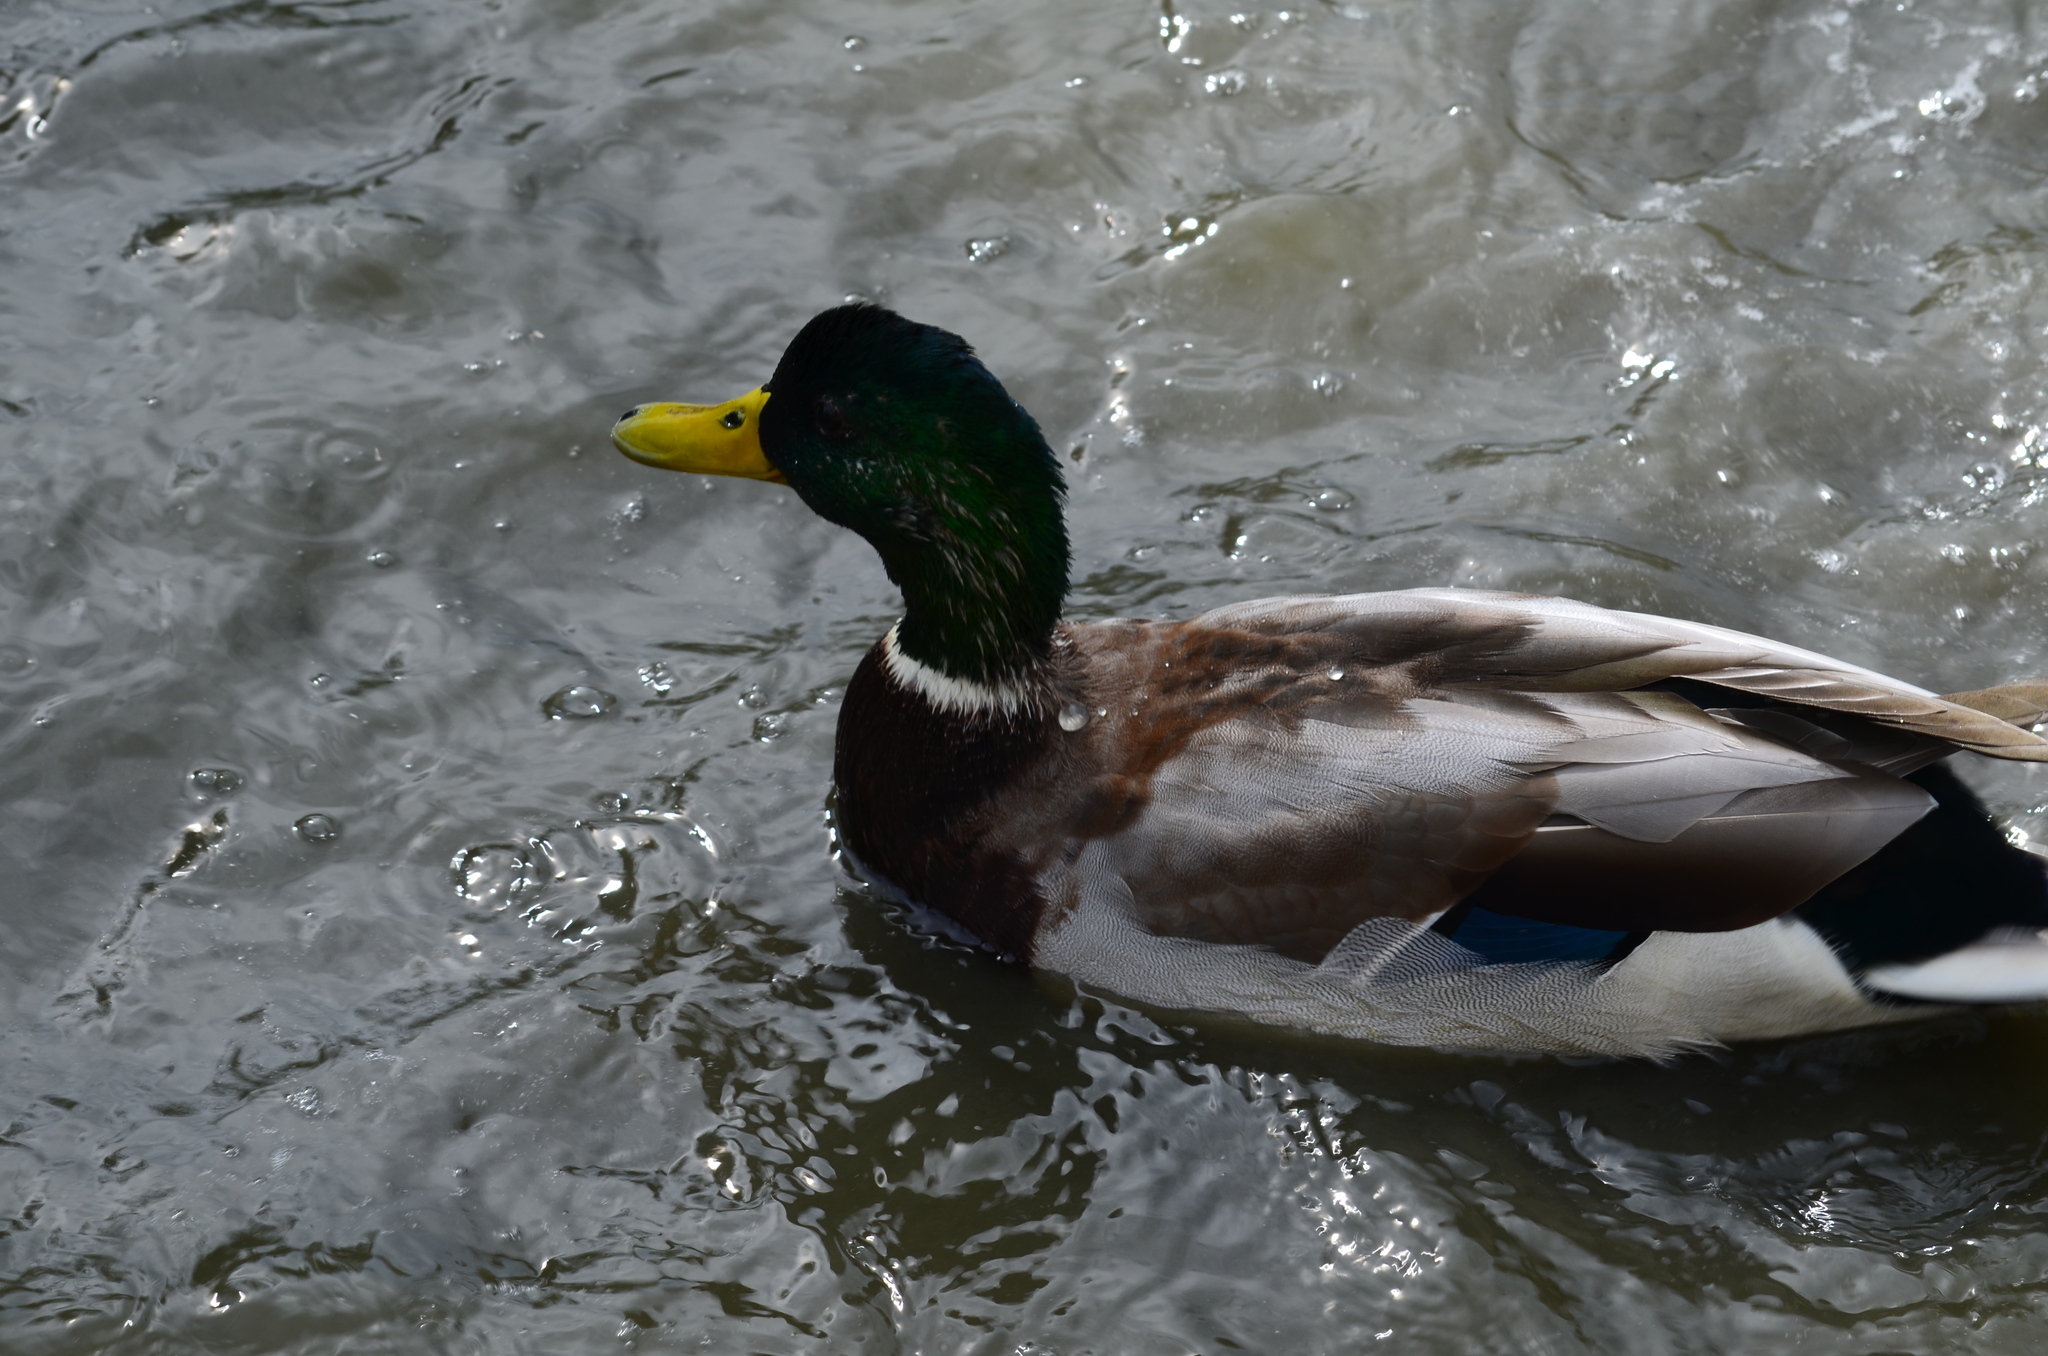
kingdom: Animalia
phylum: Chordata
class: Aves
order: Anseriformes
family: Anatidae
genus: Anas
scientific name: Anas platyrhynchos
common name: Mallard
